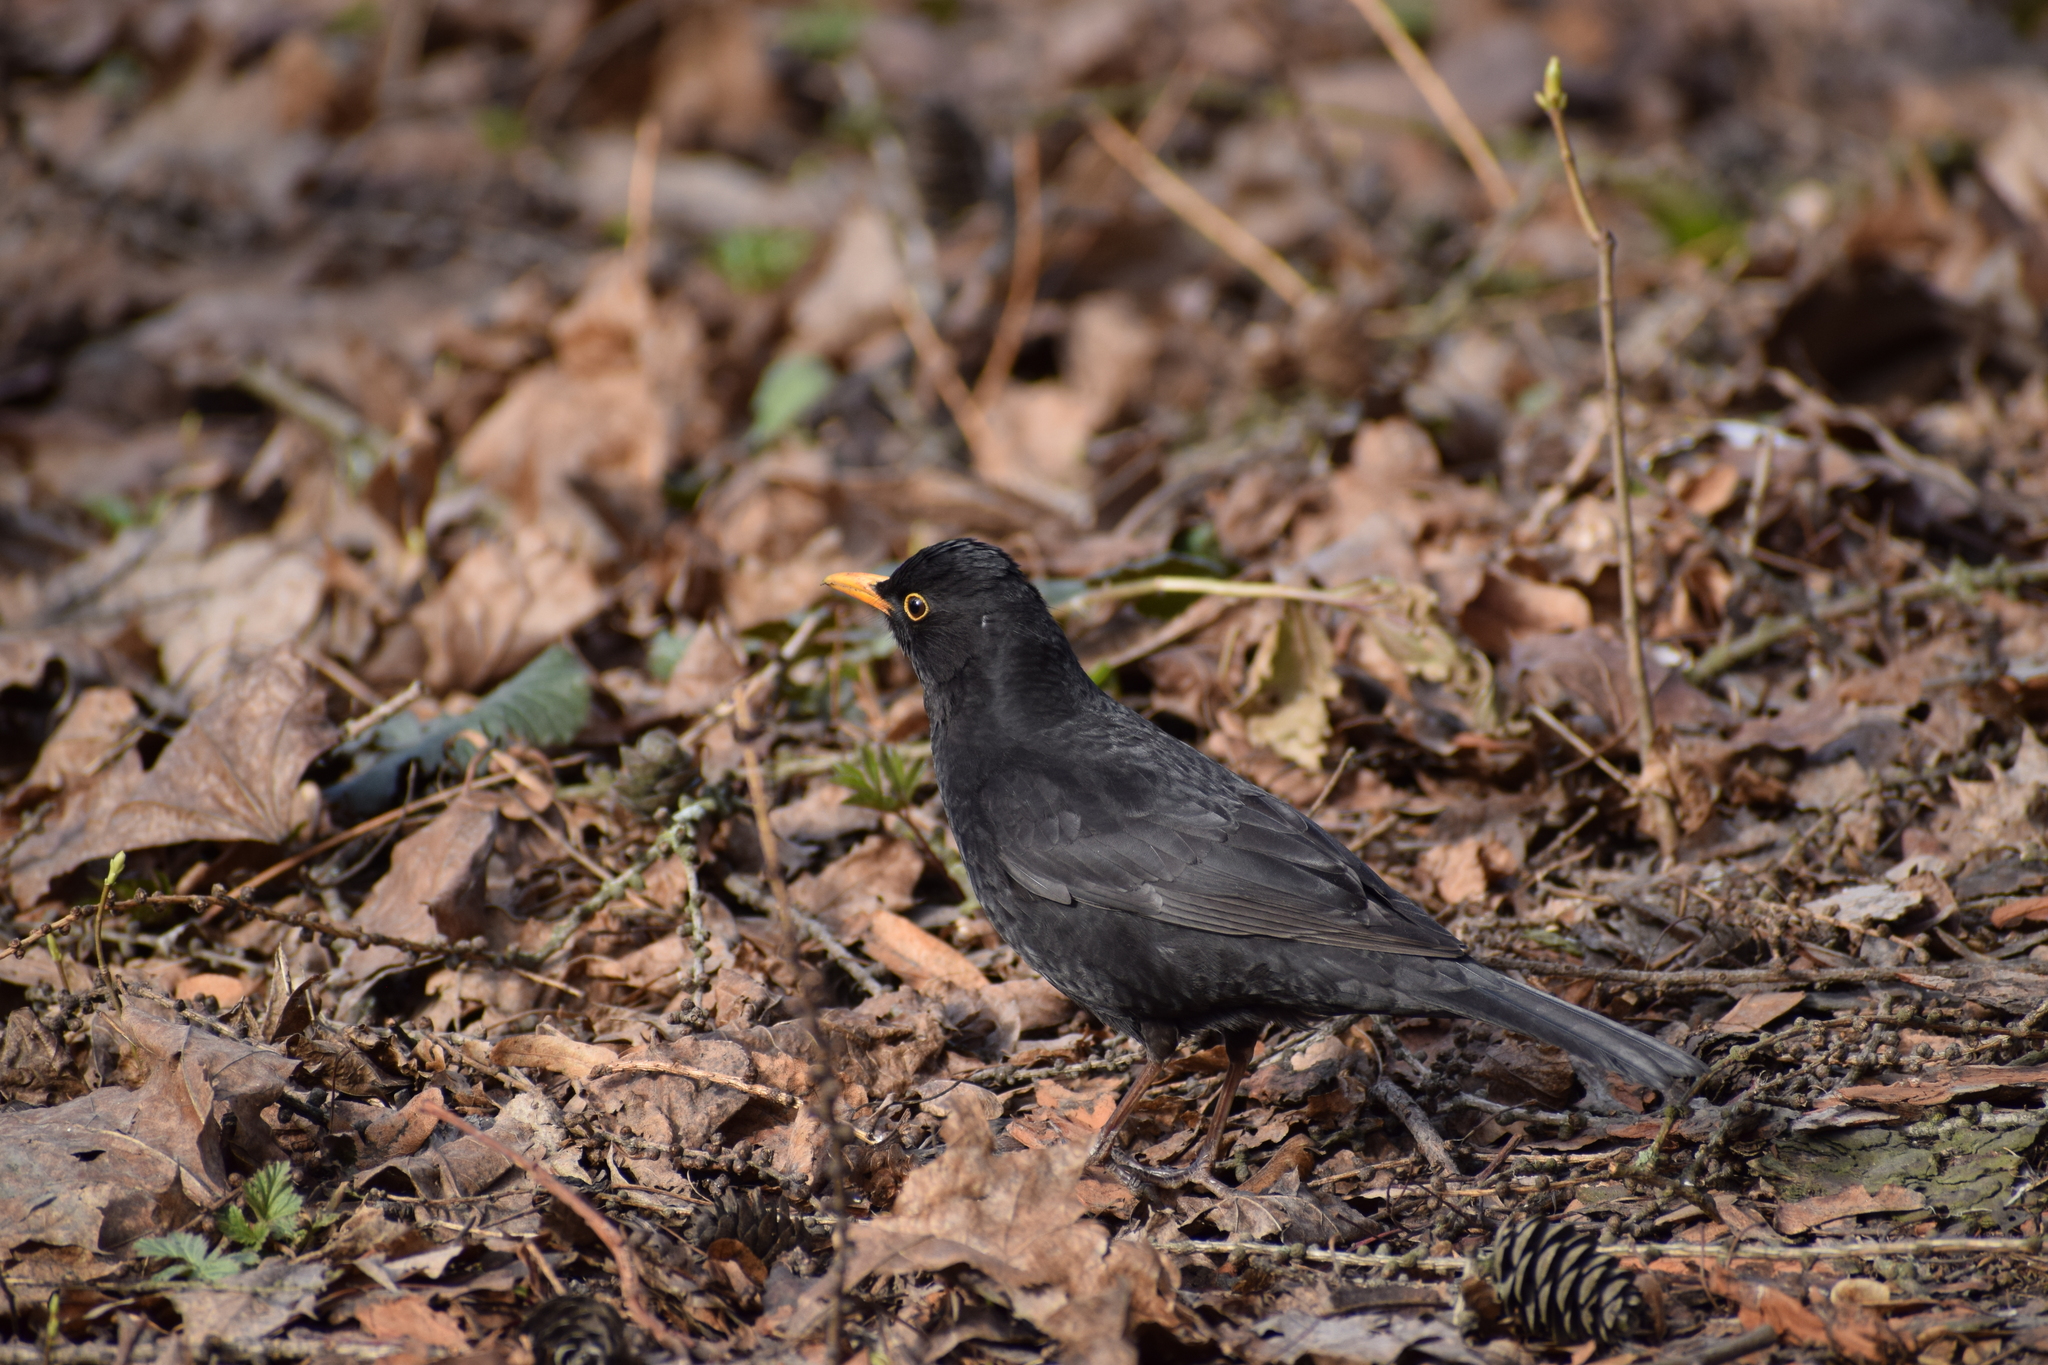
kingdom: Animalia
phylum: Chordata
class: Aves
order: Passeriformes
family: Turdidae
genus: Turdus
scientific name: Turdus merula
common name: Common blackbird
